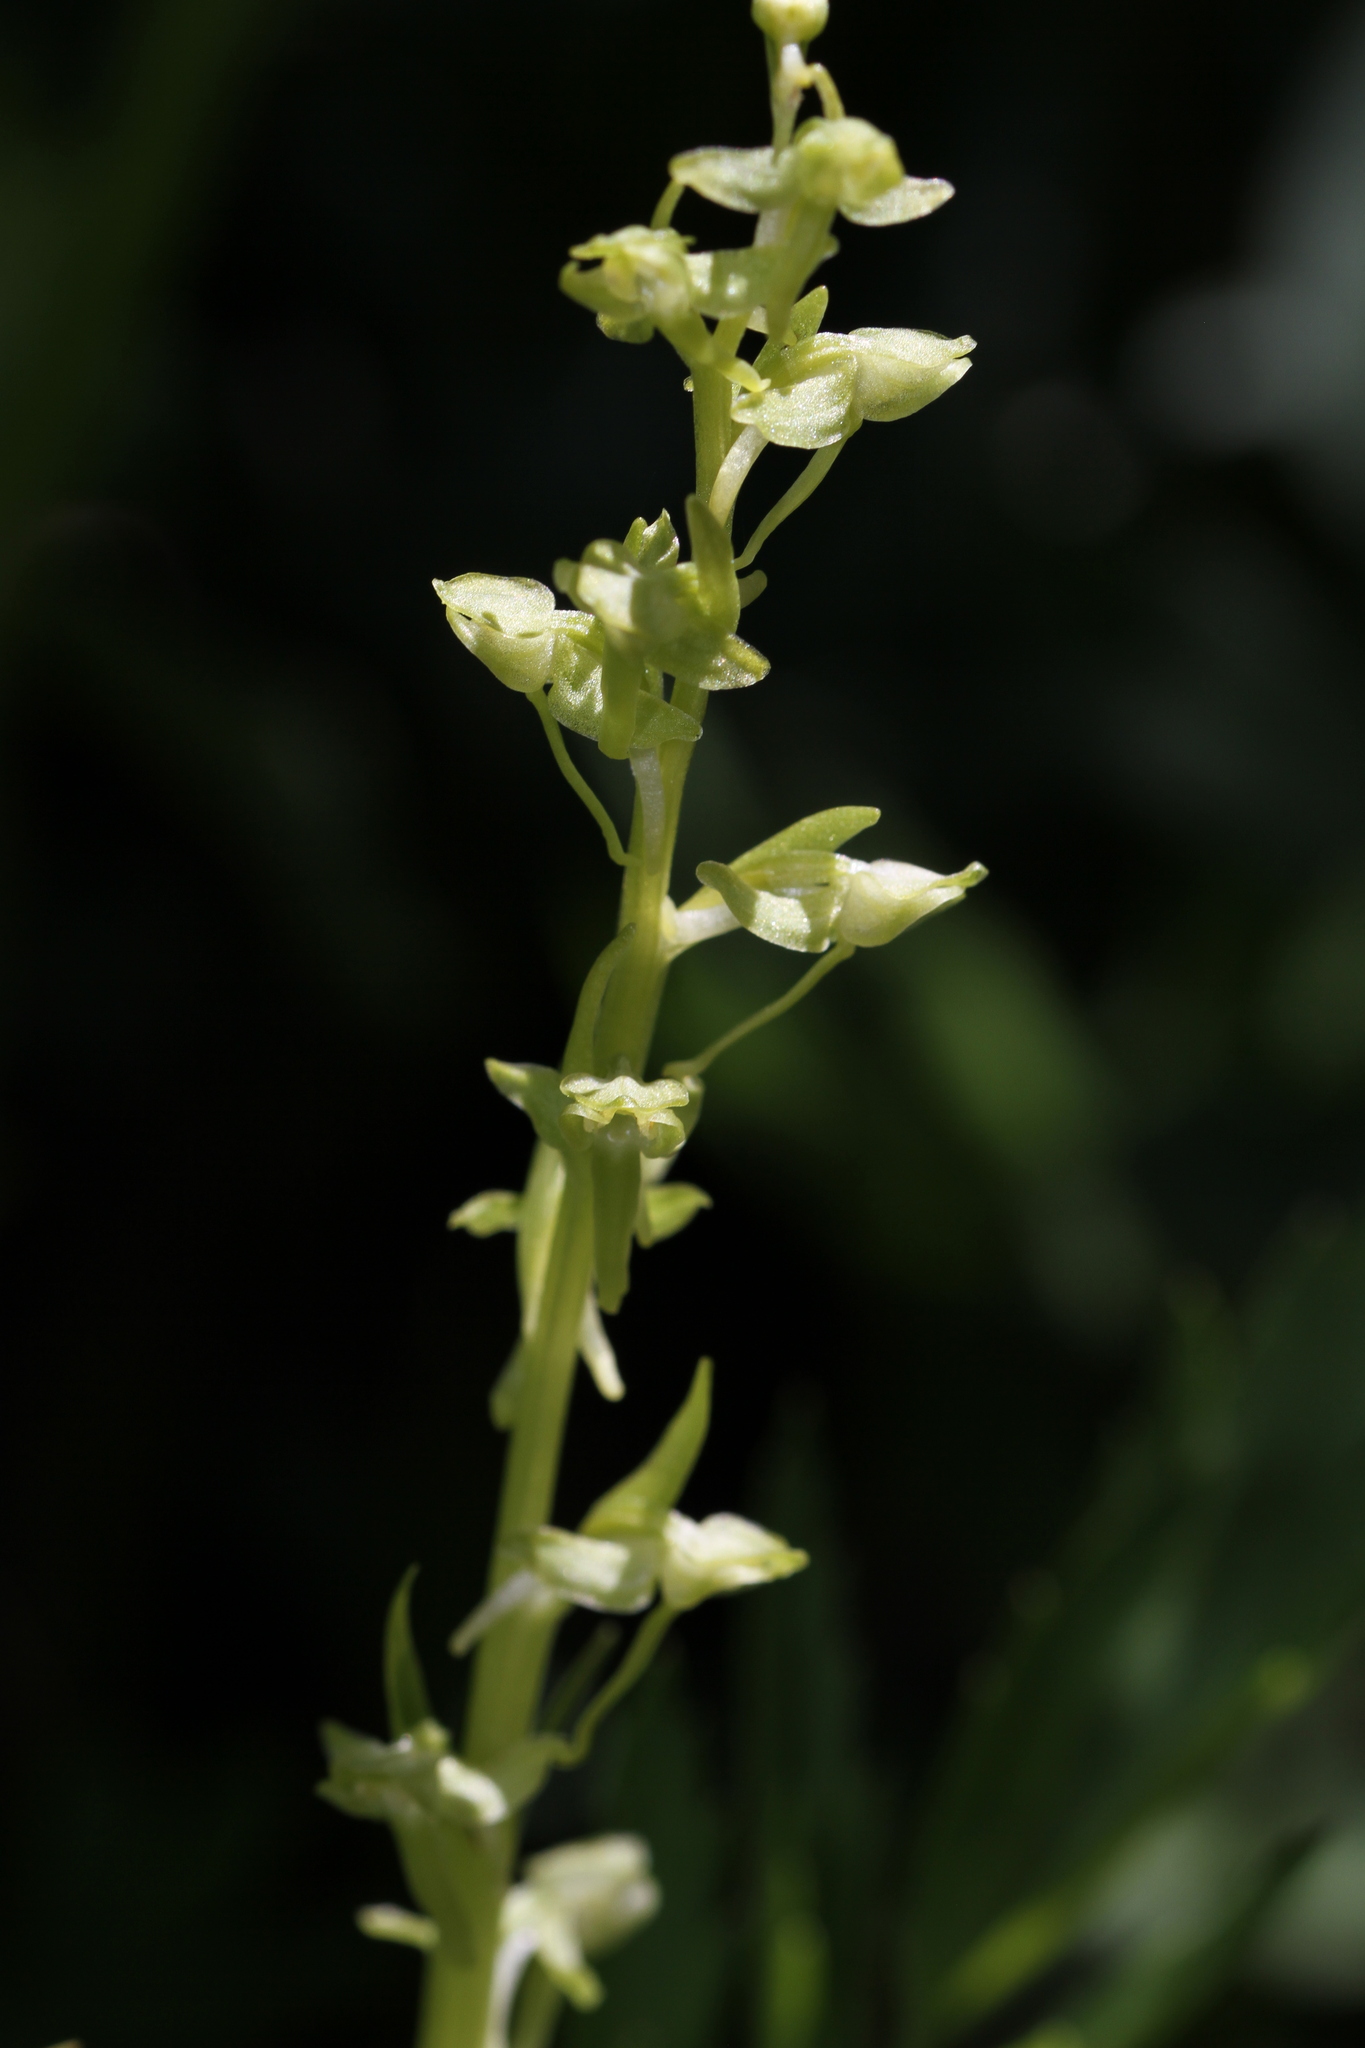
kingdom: Plantae
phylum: Tracheophyta
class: Liliopsida
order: Asparagales
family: Orchidaceae
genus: Platanthera
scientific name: Platanthera sparsiflora
